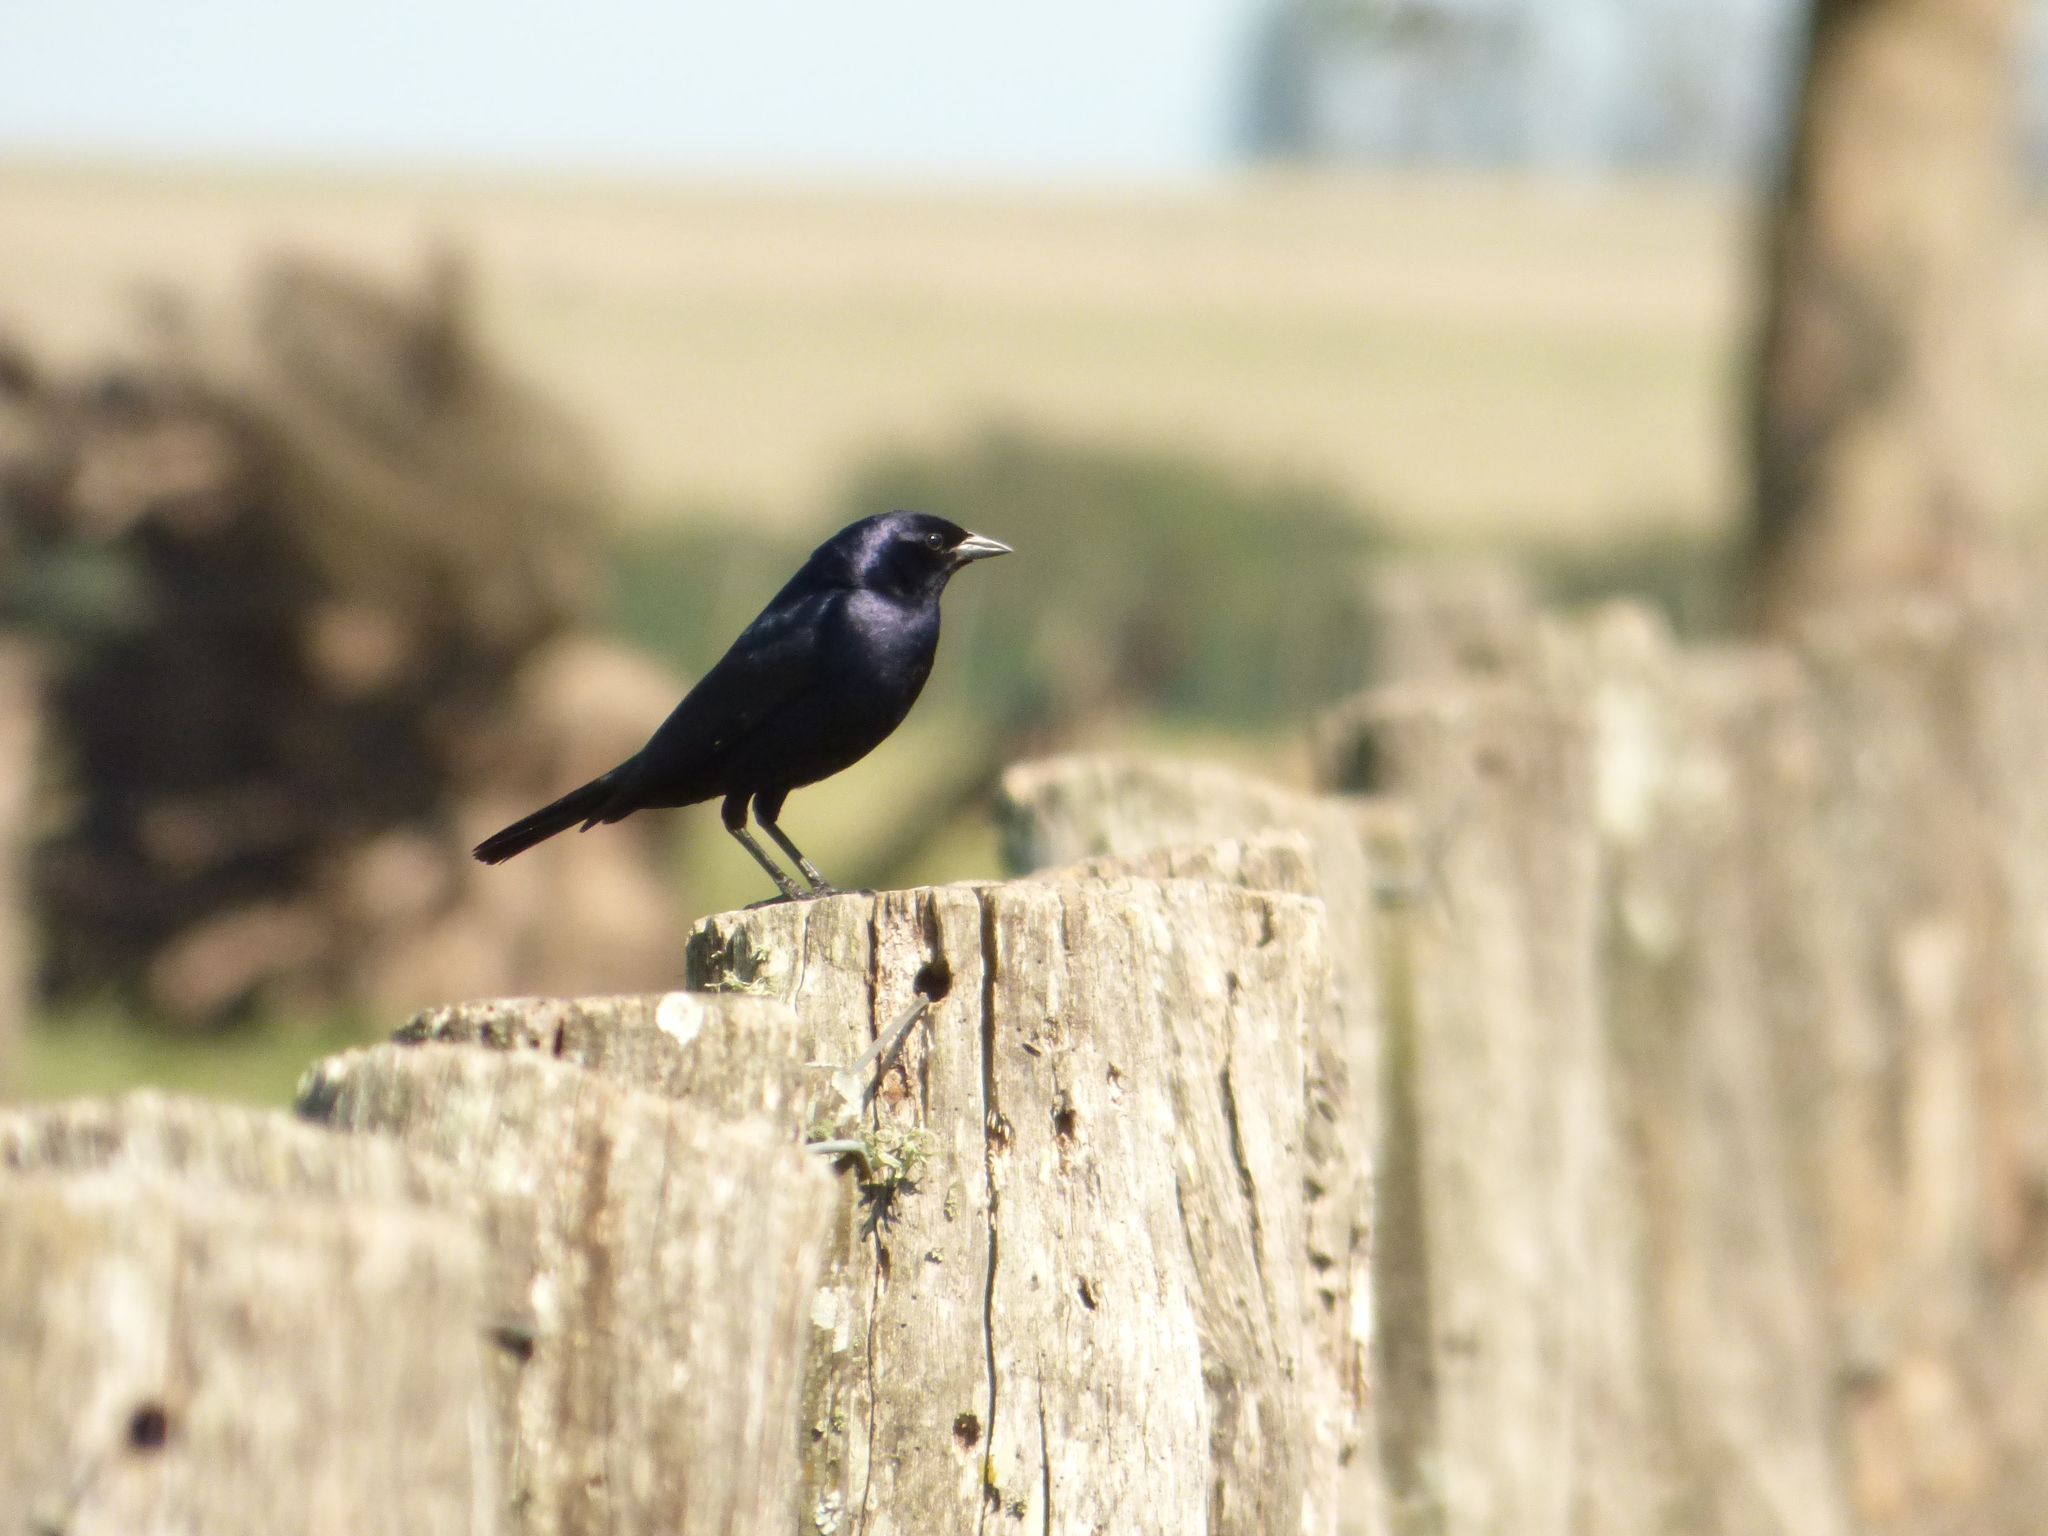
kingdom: Animalia
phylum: Chordata
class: Aves
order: Passeriformes
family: Icteridae
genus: Molothrus
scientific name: Molothrus bonariensis
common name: Shiny cowbird
